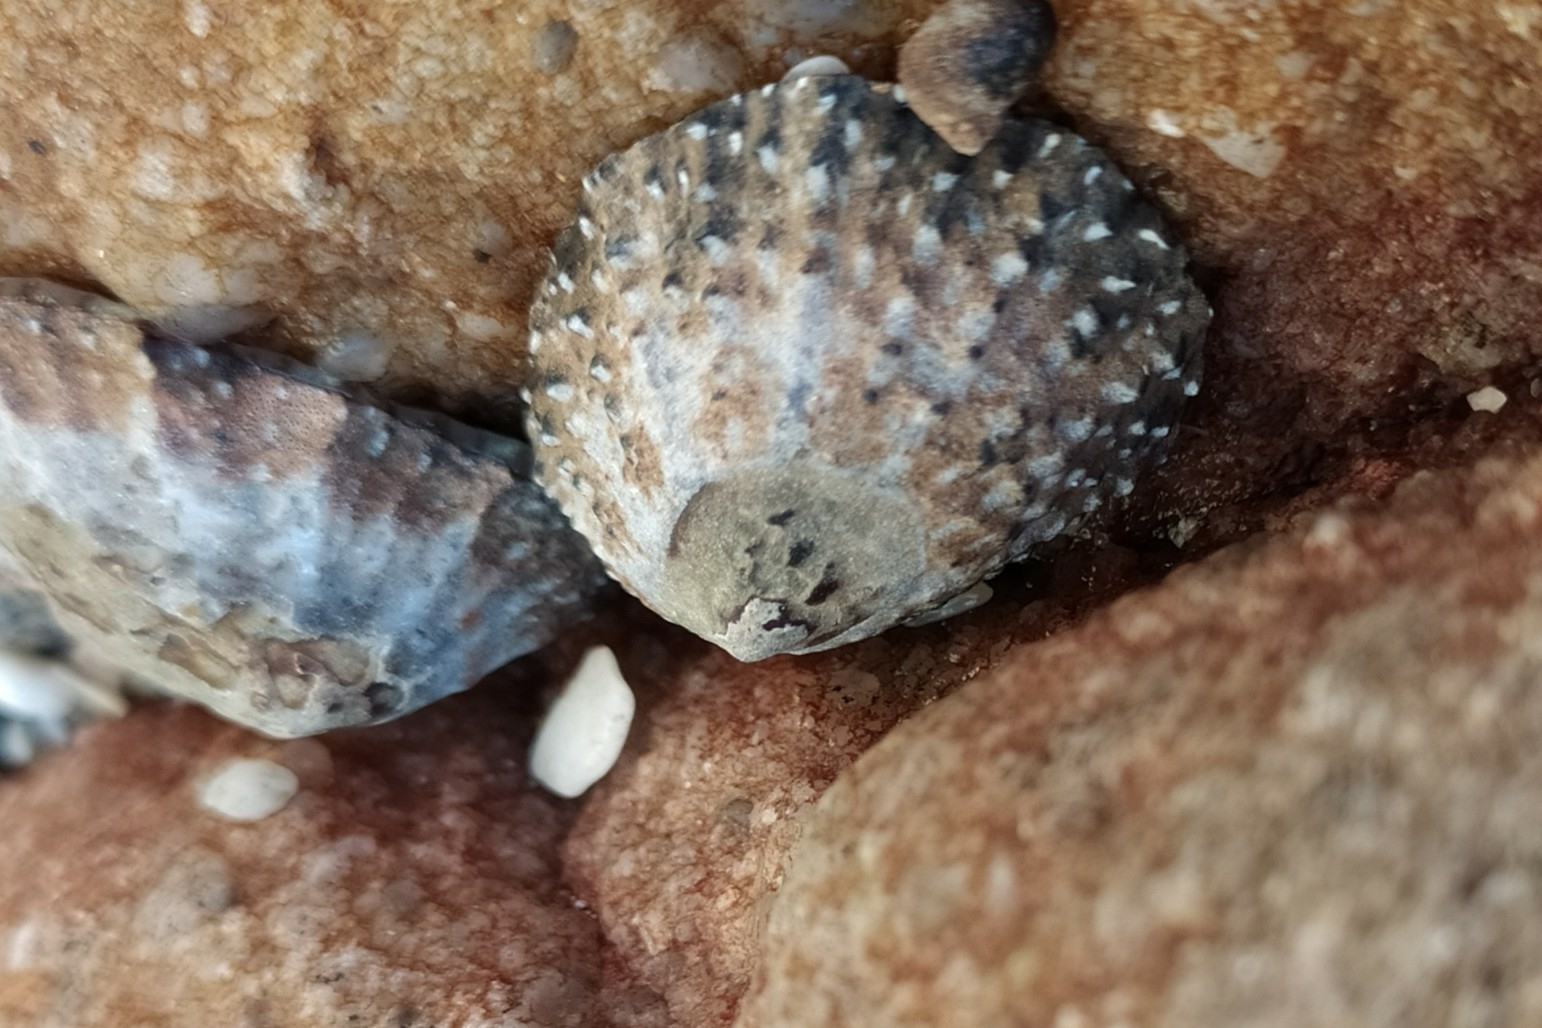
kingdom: Animalia
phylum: Mollusca
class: Gastropoda
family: Patellidae
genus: Scutellastra
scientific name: Scutellastra granularis
